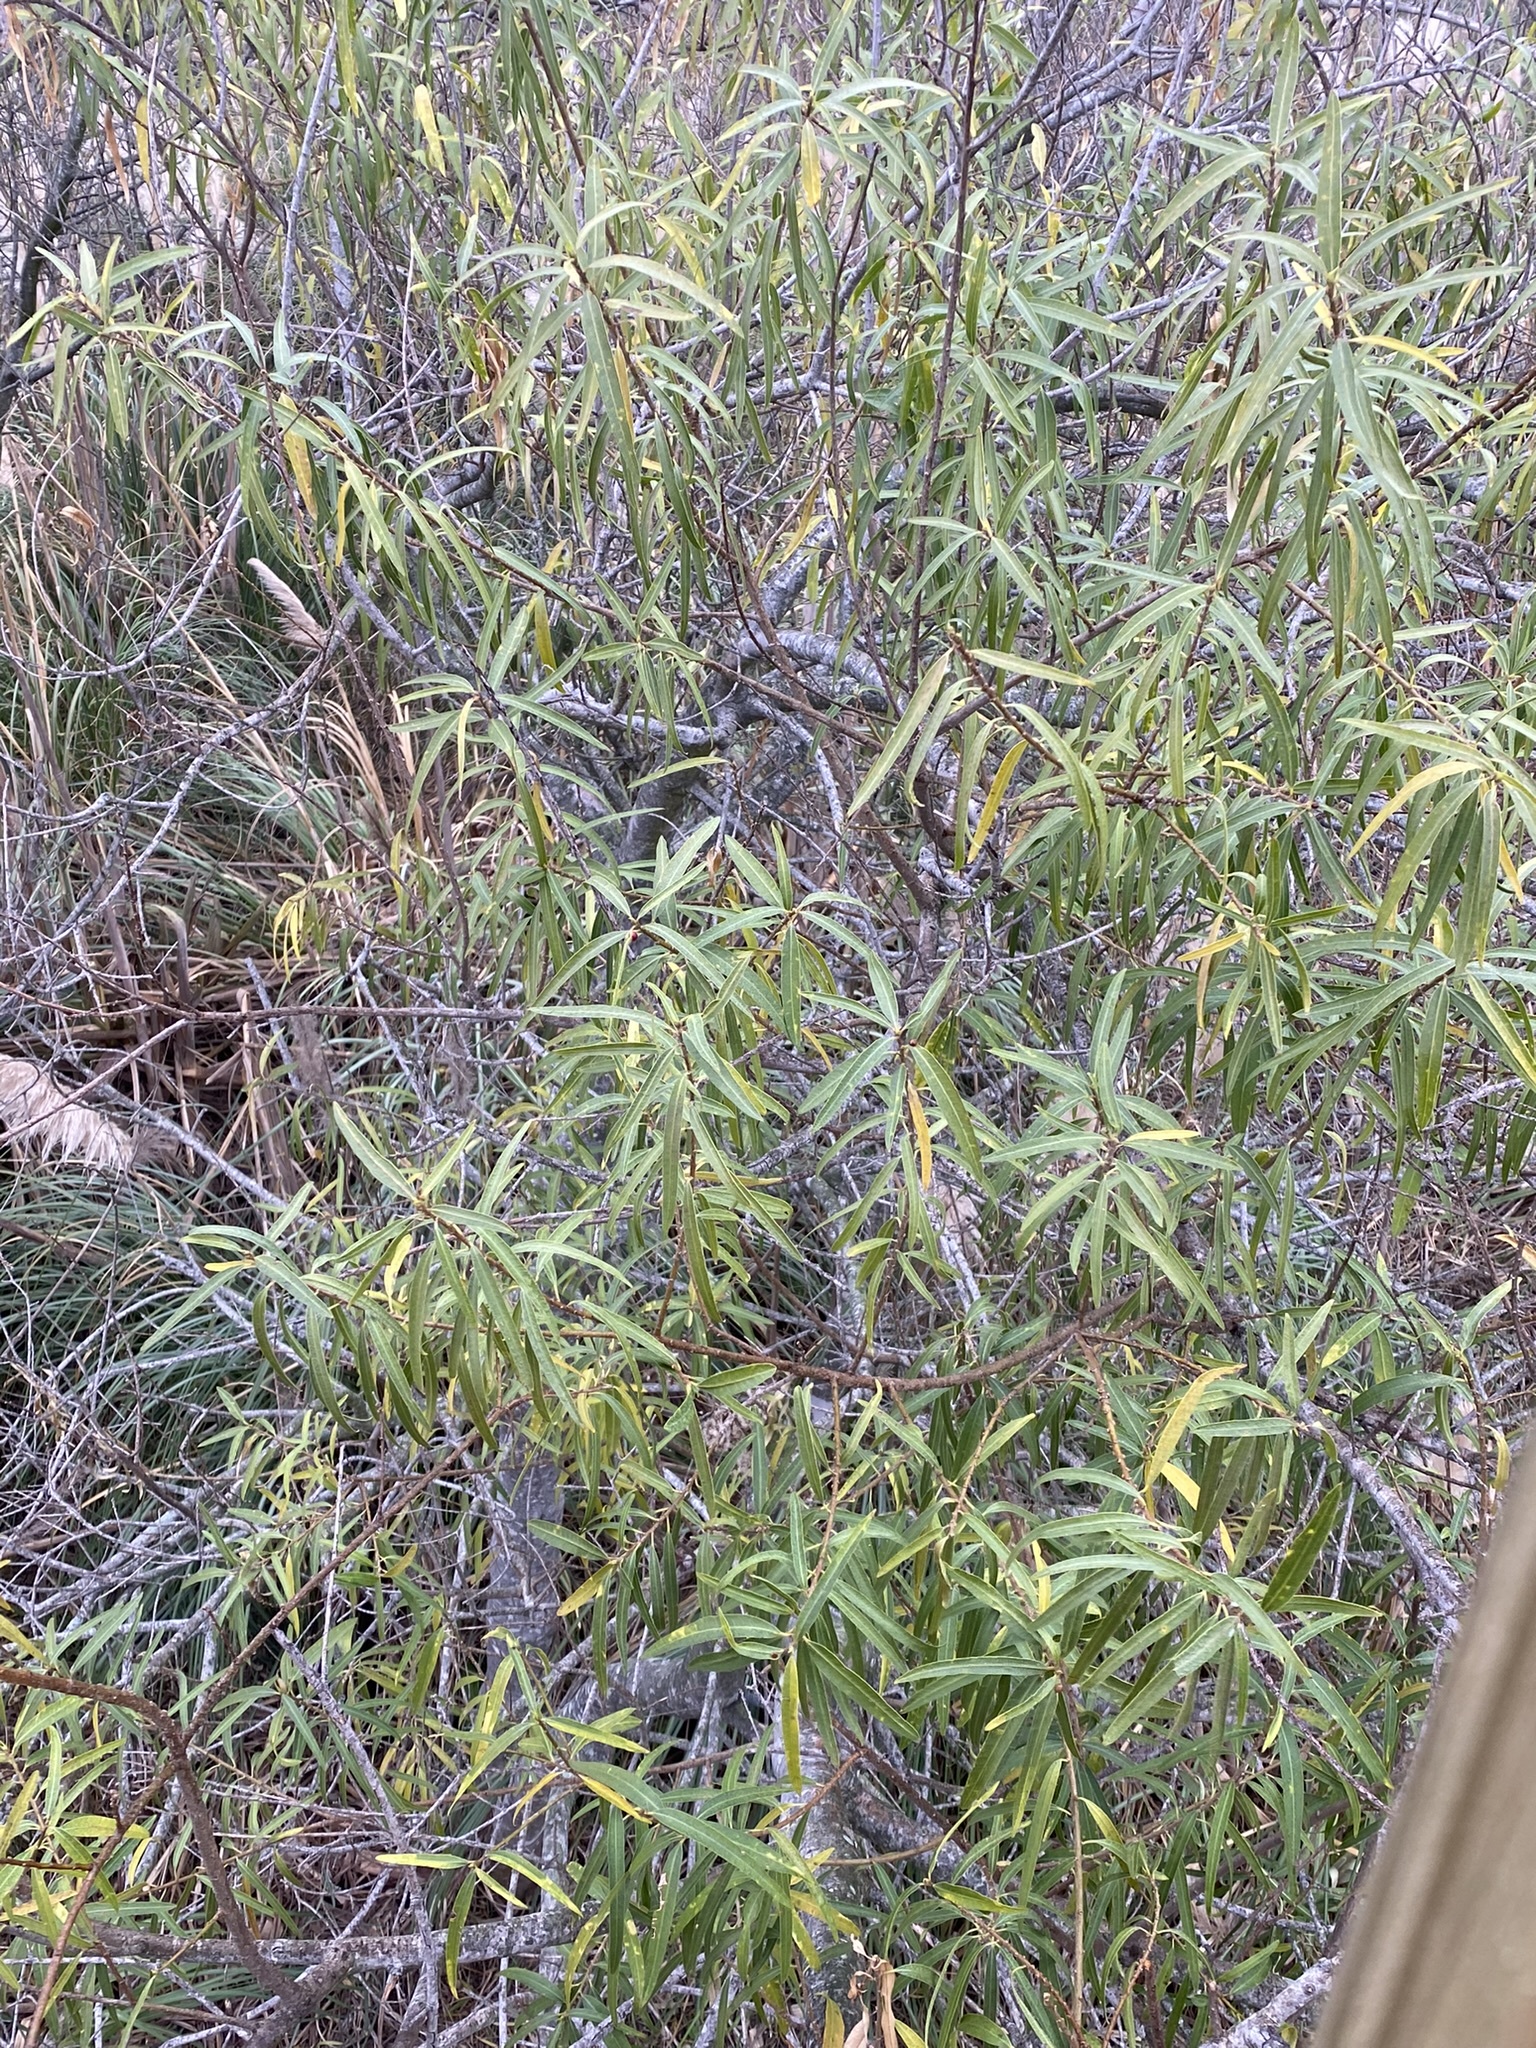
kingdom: Plantae
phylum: Tracheophyta
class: Magnoliopsida
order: Malpighiales
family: Euphorbiaceae
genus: Sapium
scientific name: Sapium haematospermum
